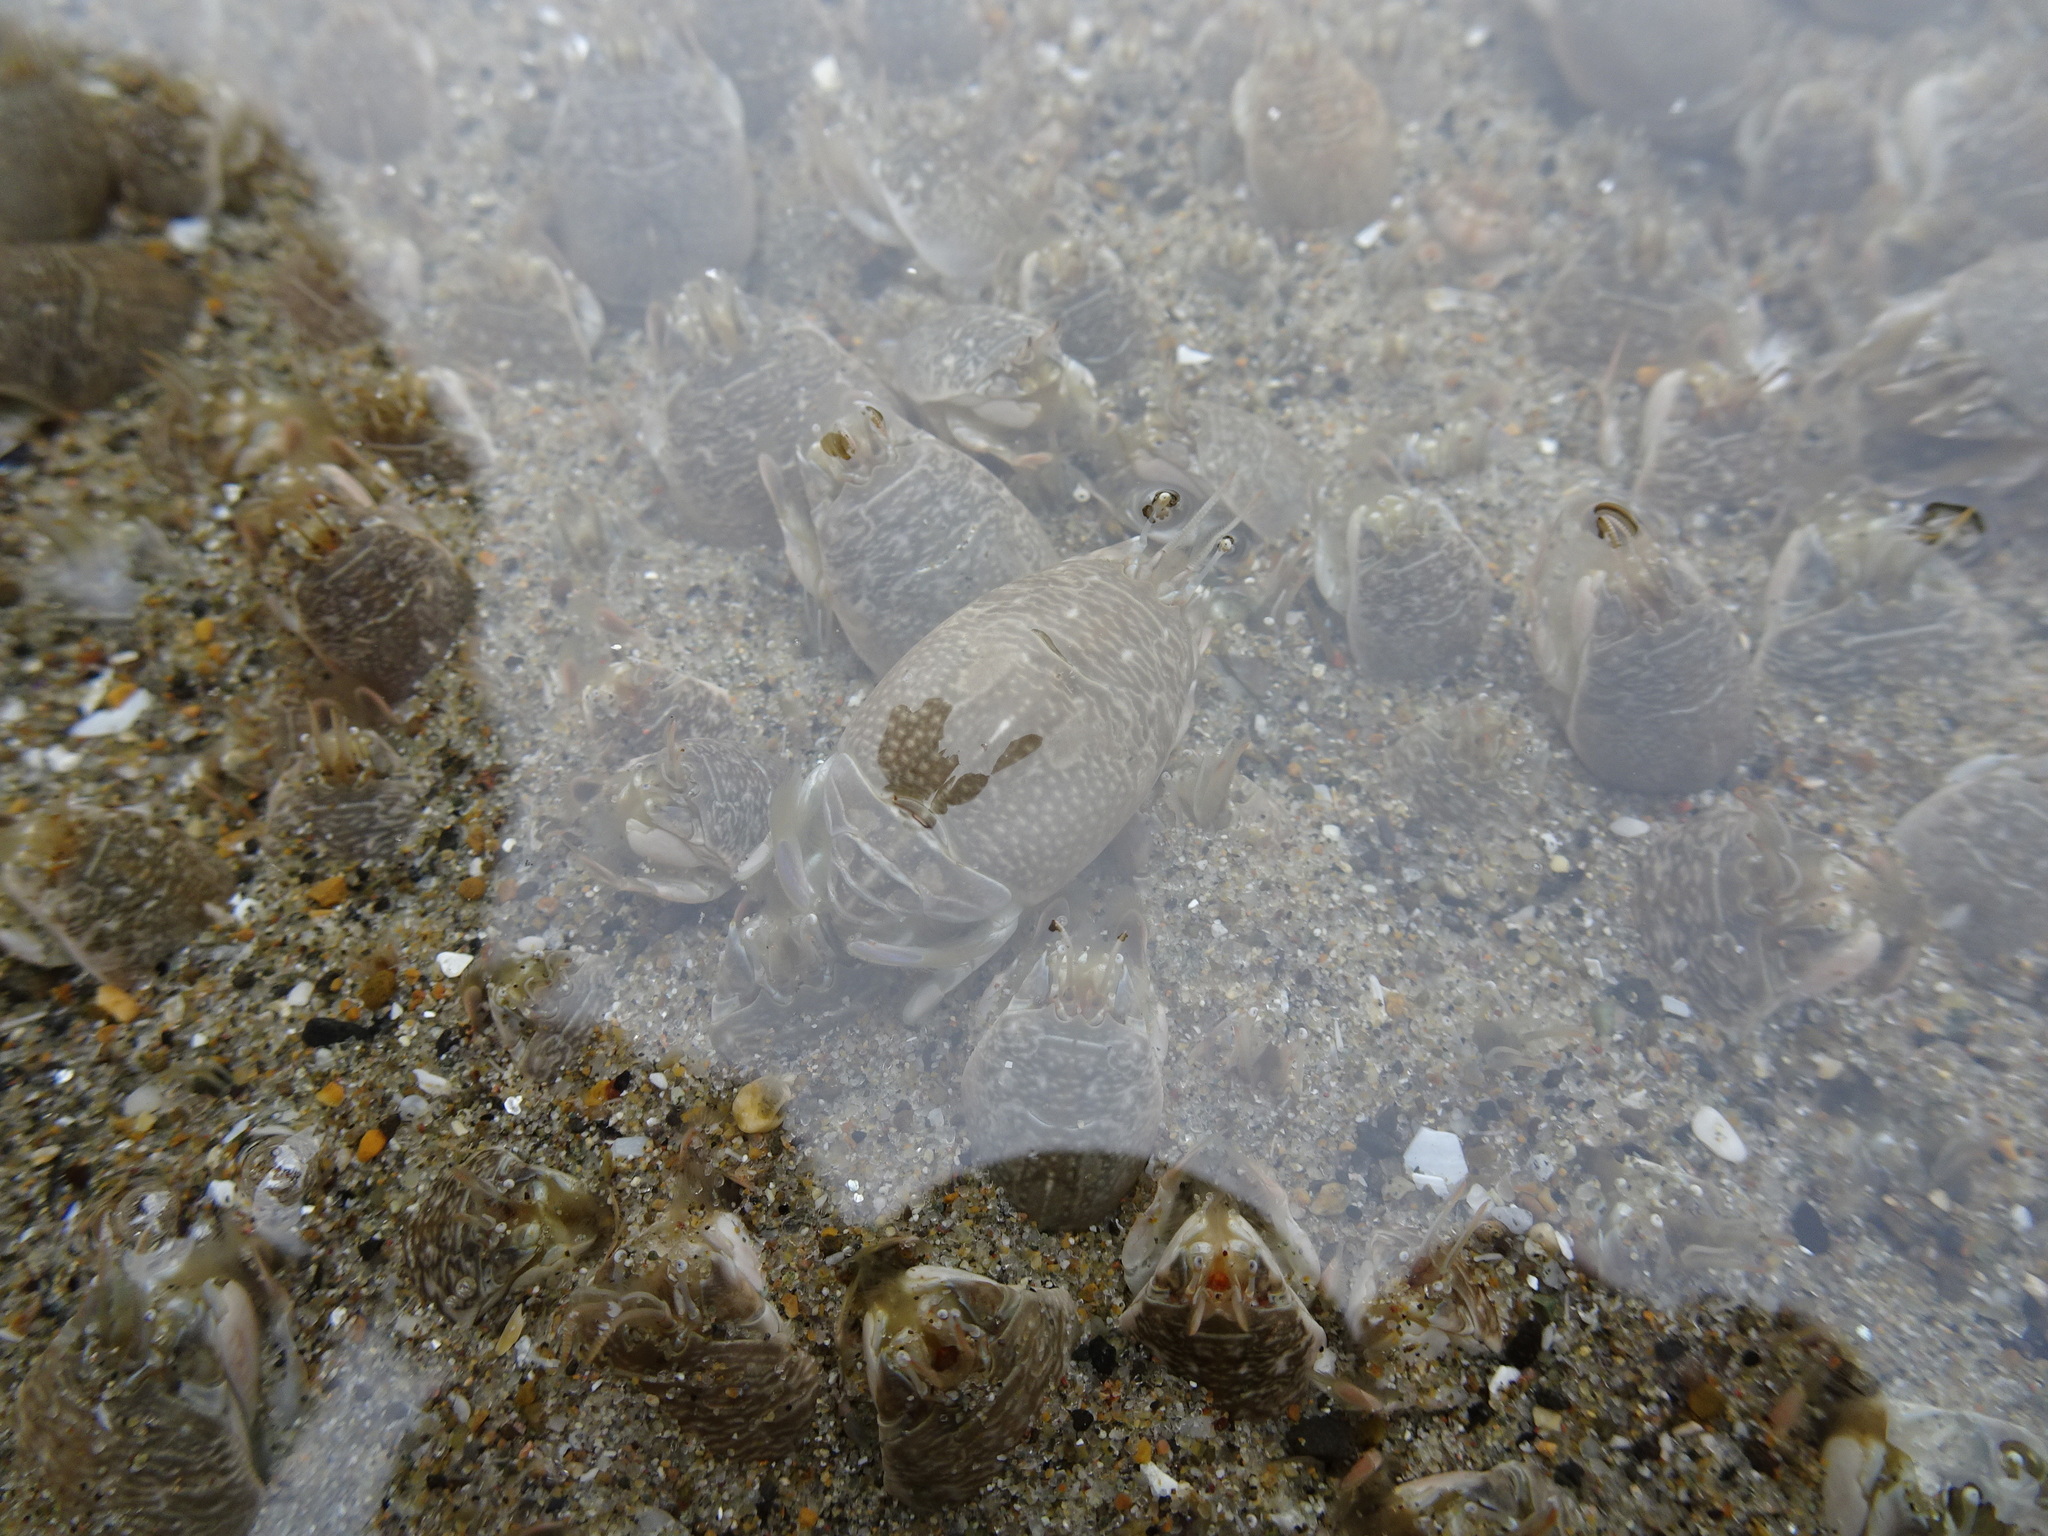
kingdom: Animalia
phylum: Arthropoda
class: Malacostraca
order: Decapoda
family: Hippidae
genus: Emerita
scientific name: Emerita analoga
